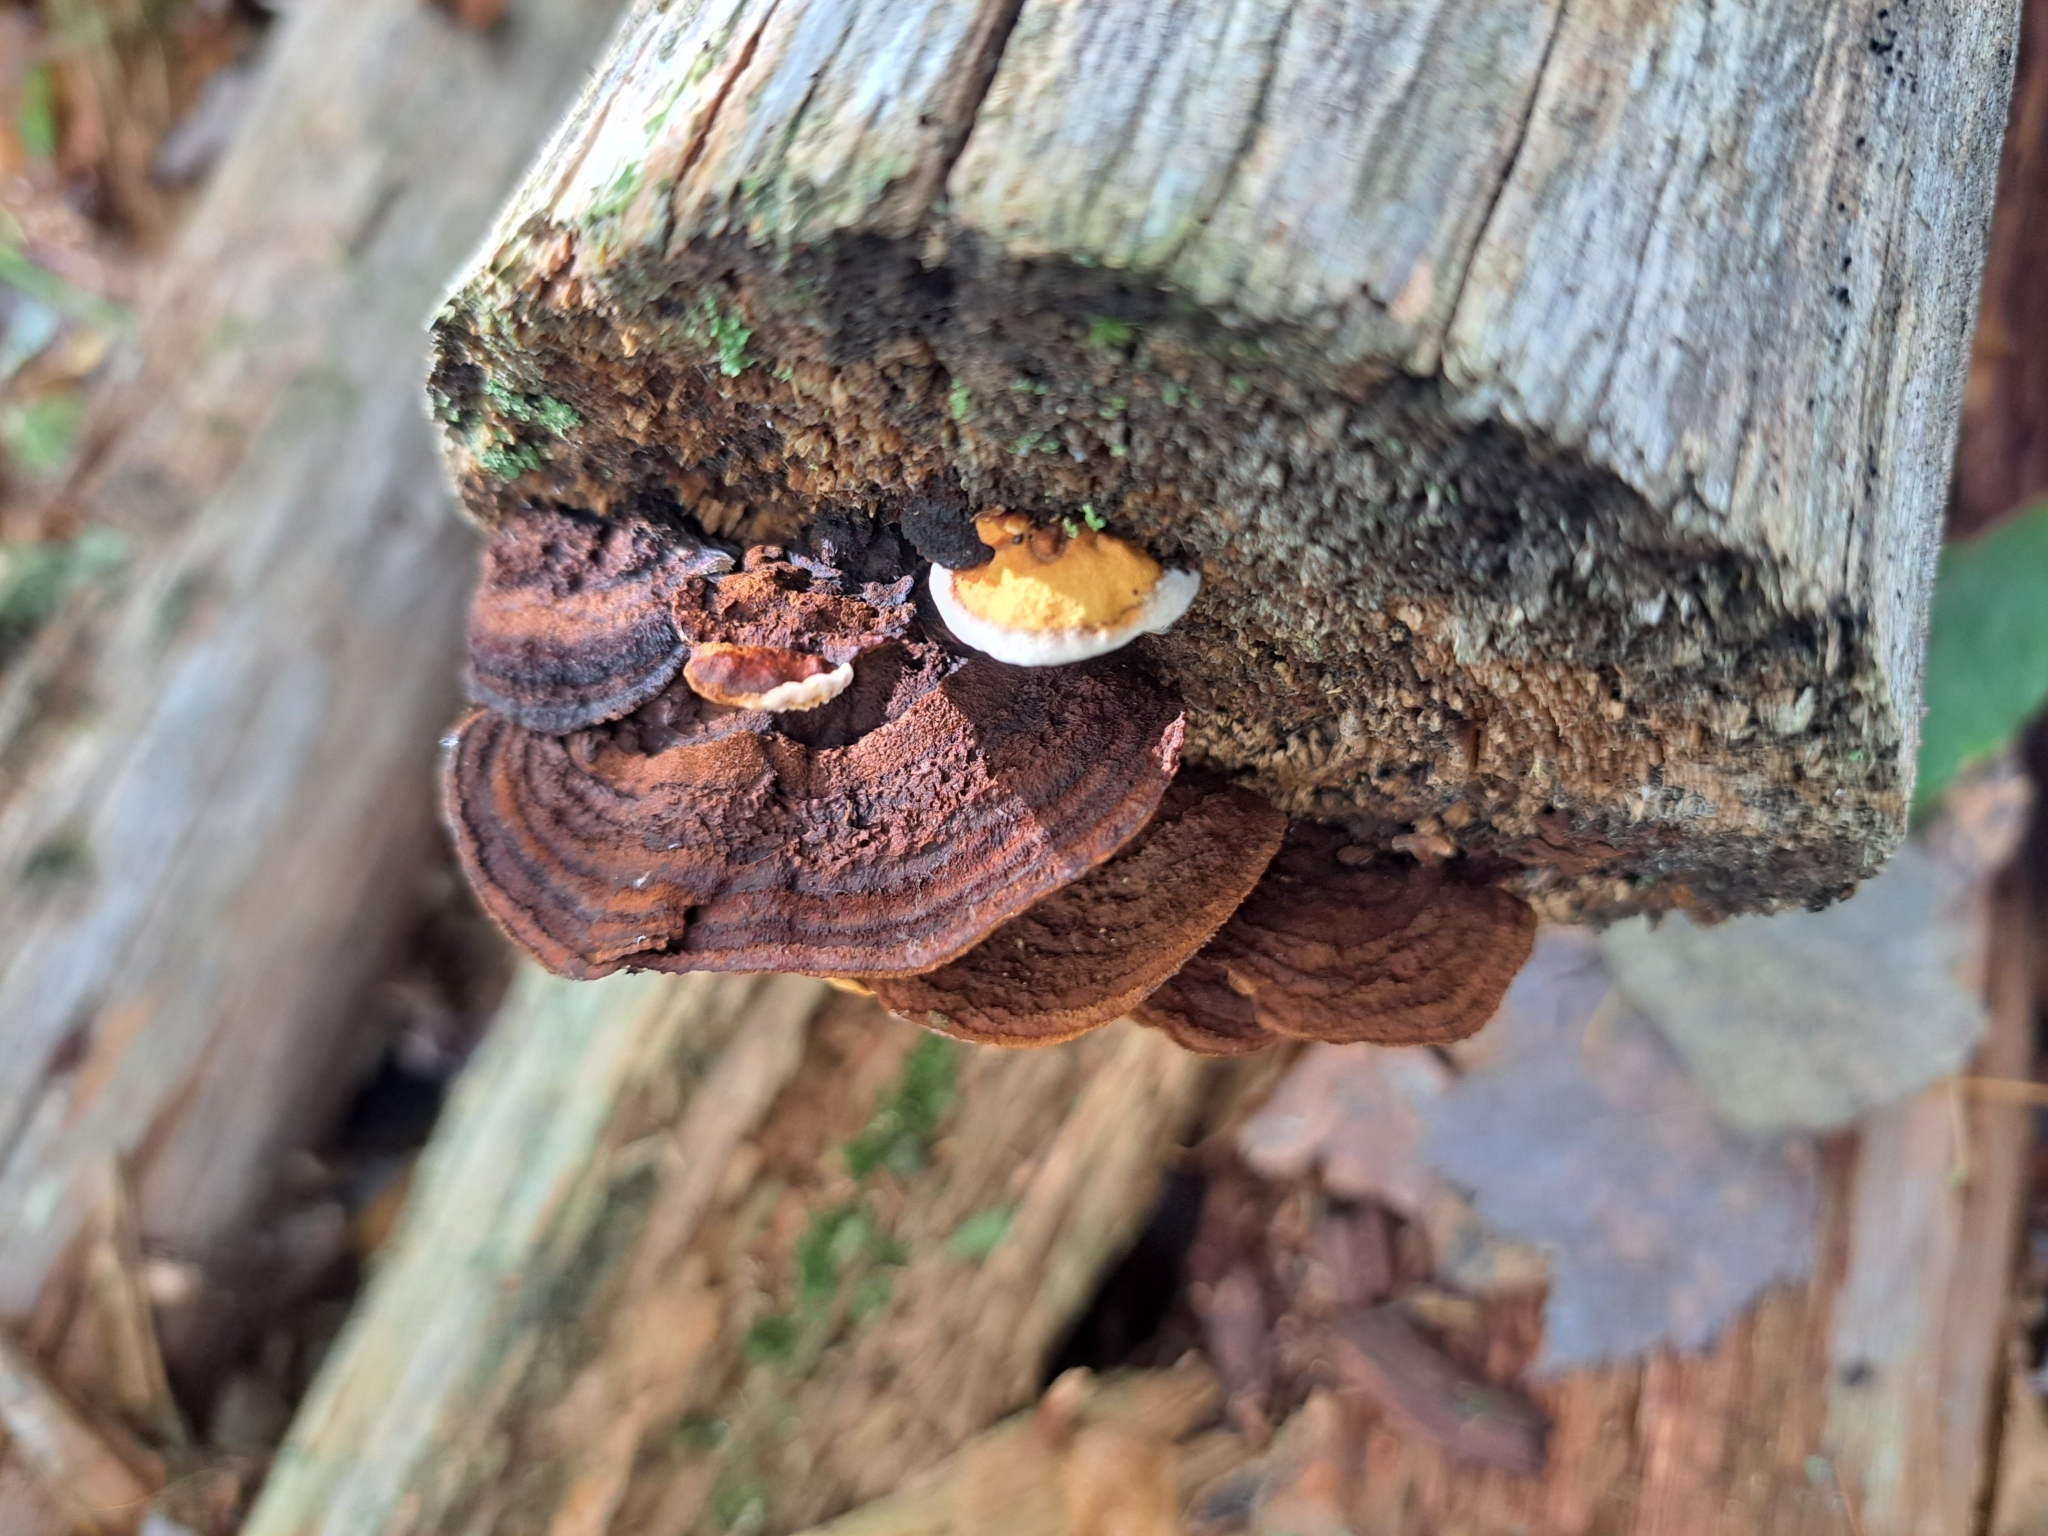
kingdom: Fungi
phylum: Basidiomycota
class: Agaricomycetes
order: Gloeophyllales
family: Gloeophyllaceae
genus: Gloeophyllum
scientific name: Gloeophyllum sepiarium
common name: Conifer mazegill
